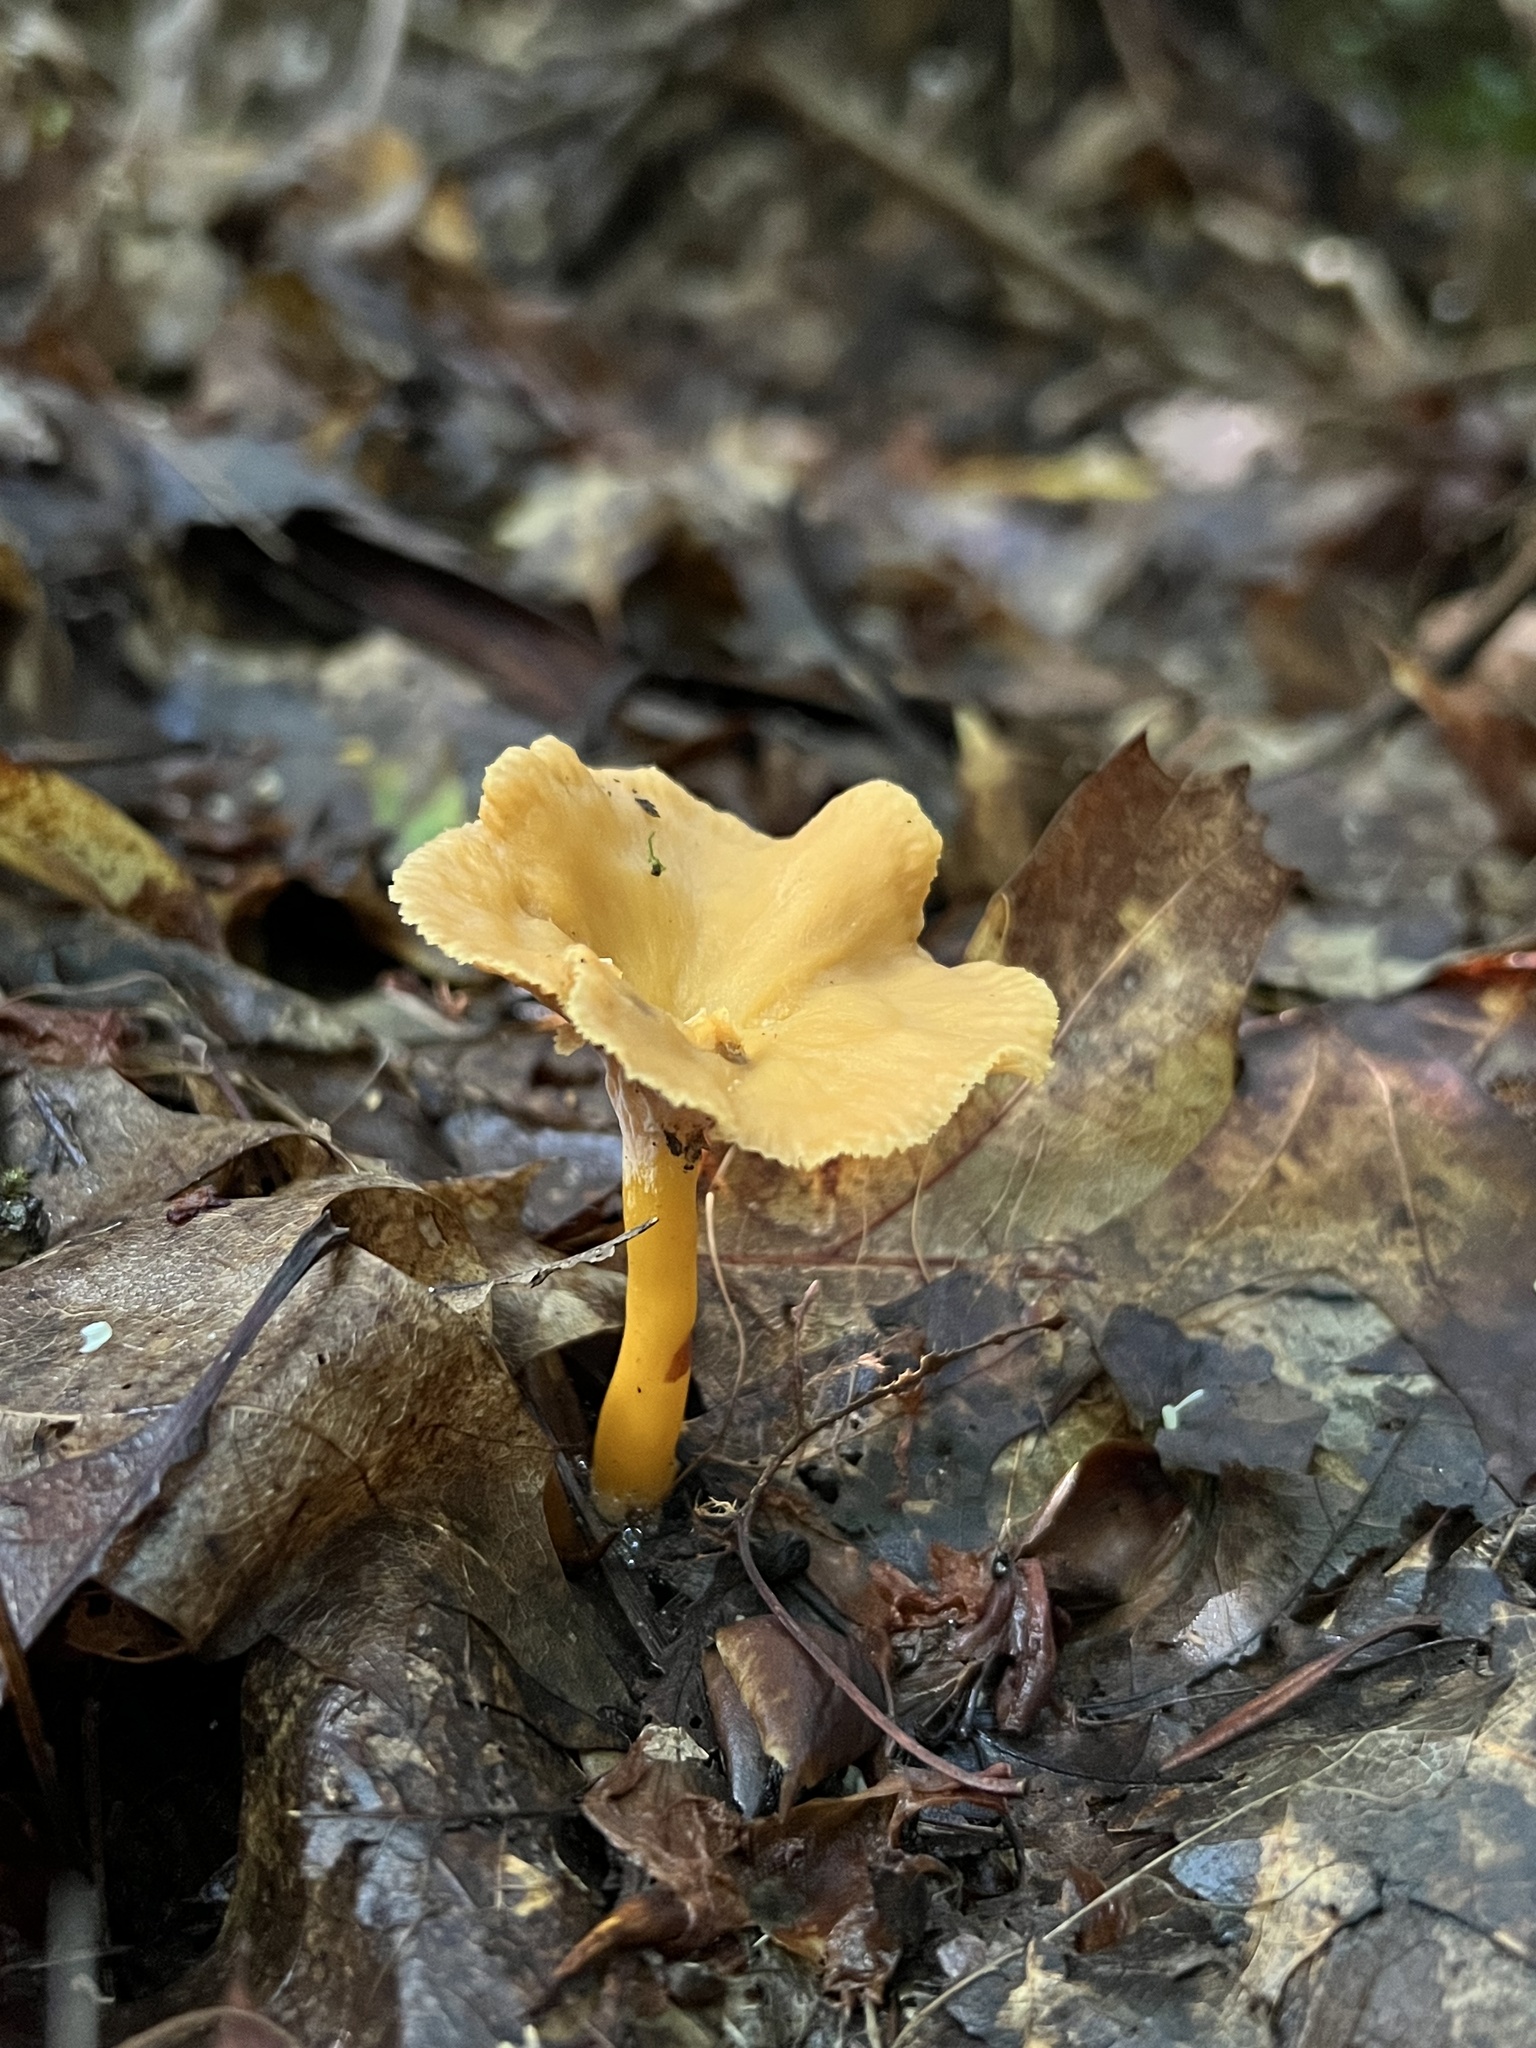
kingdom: Fungi
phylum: Basidiomycota
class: Agaricomycetes
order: Cantharellales
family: Hydnaceae
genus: Craterellus
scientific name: Craterellus ignicolor
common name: Flame chanterelle
